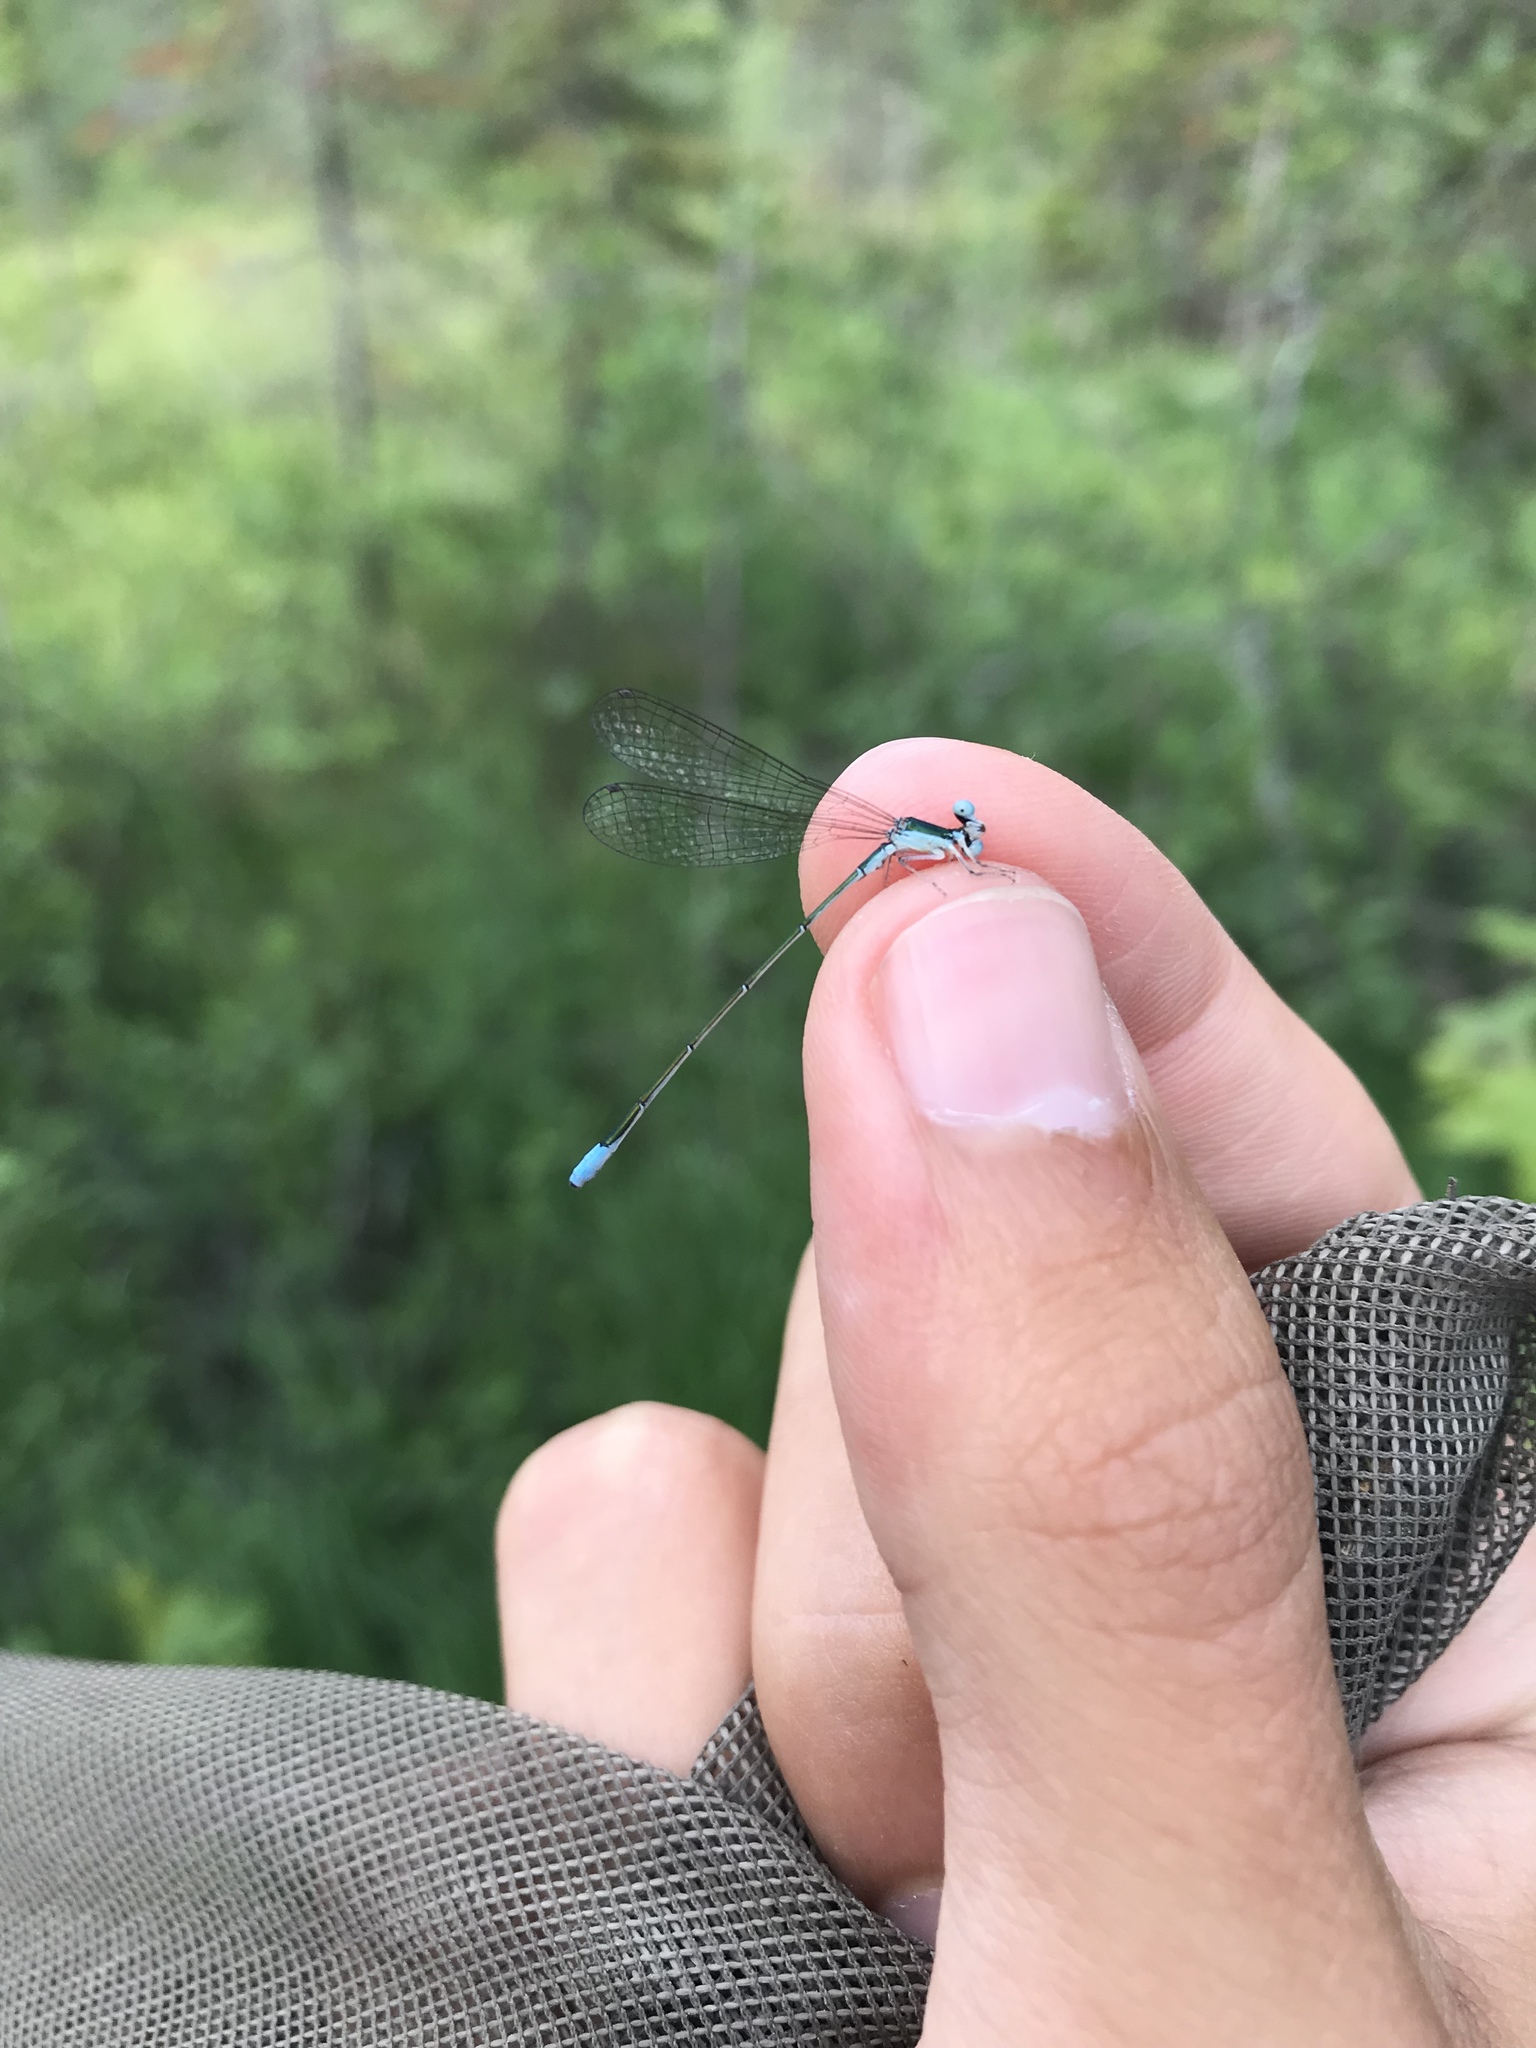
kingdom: Animalia
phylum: Arthropoda
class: Insecta
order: Odonata
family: Coenagrionidae
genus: Nehalennia
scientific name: Nehalennia gracilis
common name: Sphagnum sprite
